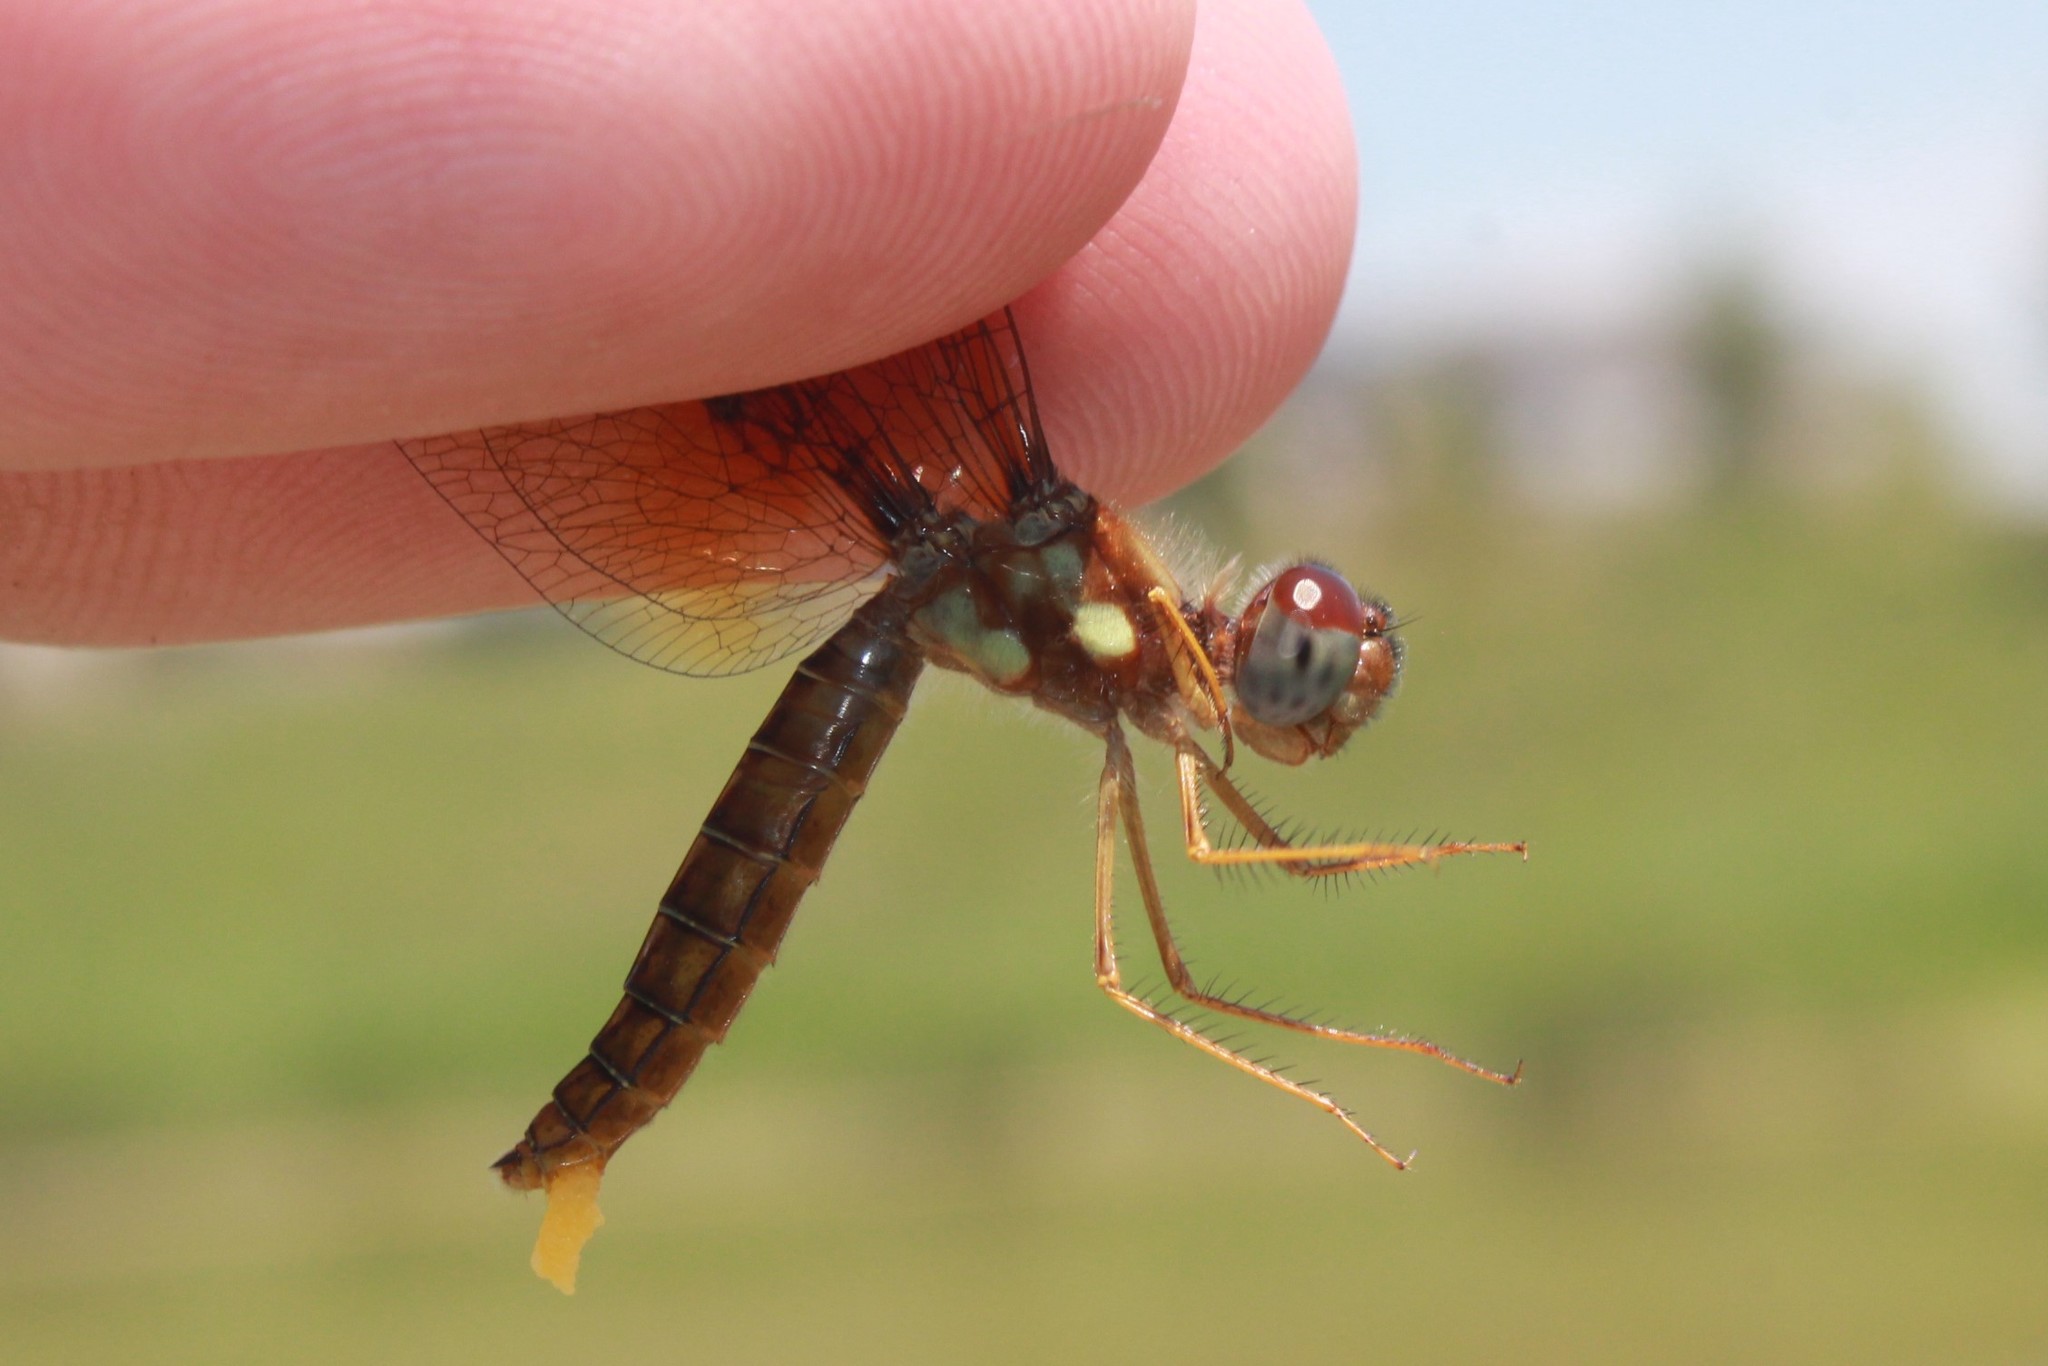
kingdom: Animalia
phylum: Arthropoda
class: Insecta
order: Odonata
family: Libellulidae
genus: Perithemis
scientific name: Perithemis tenera
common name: Eastern amberwing
